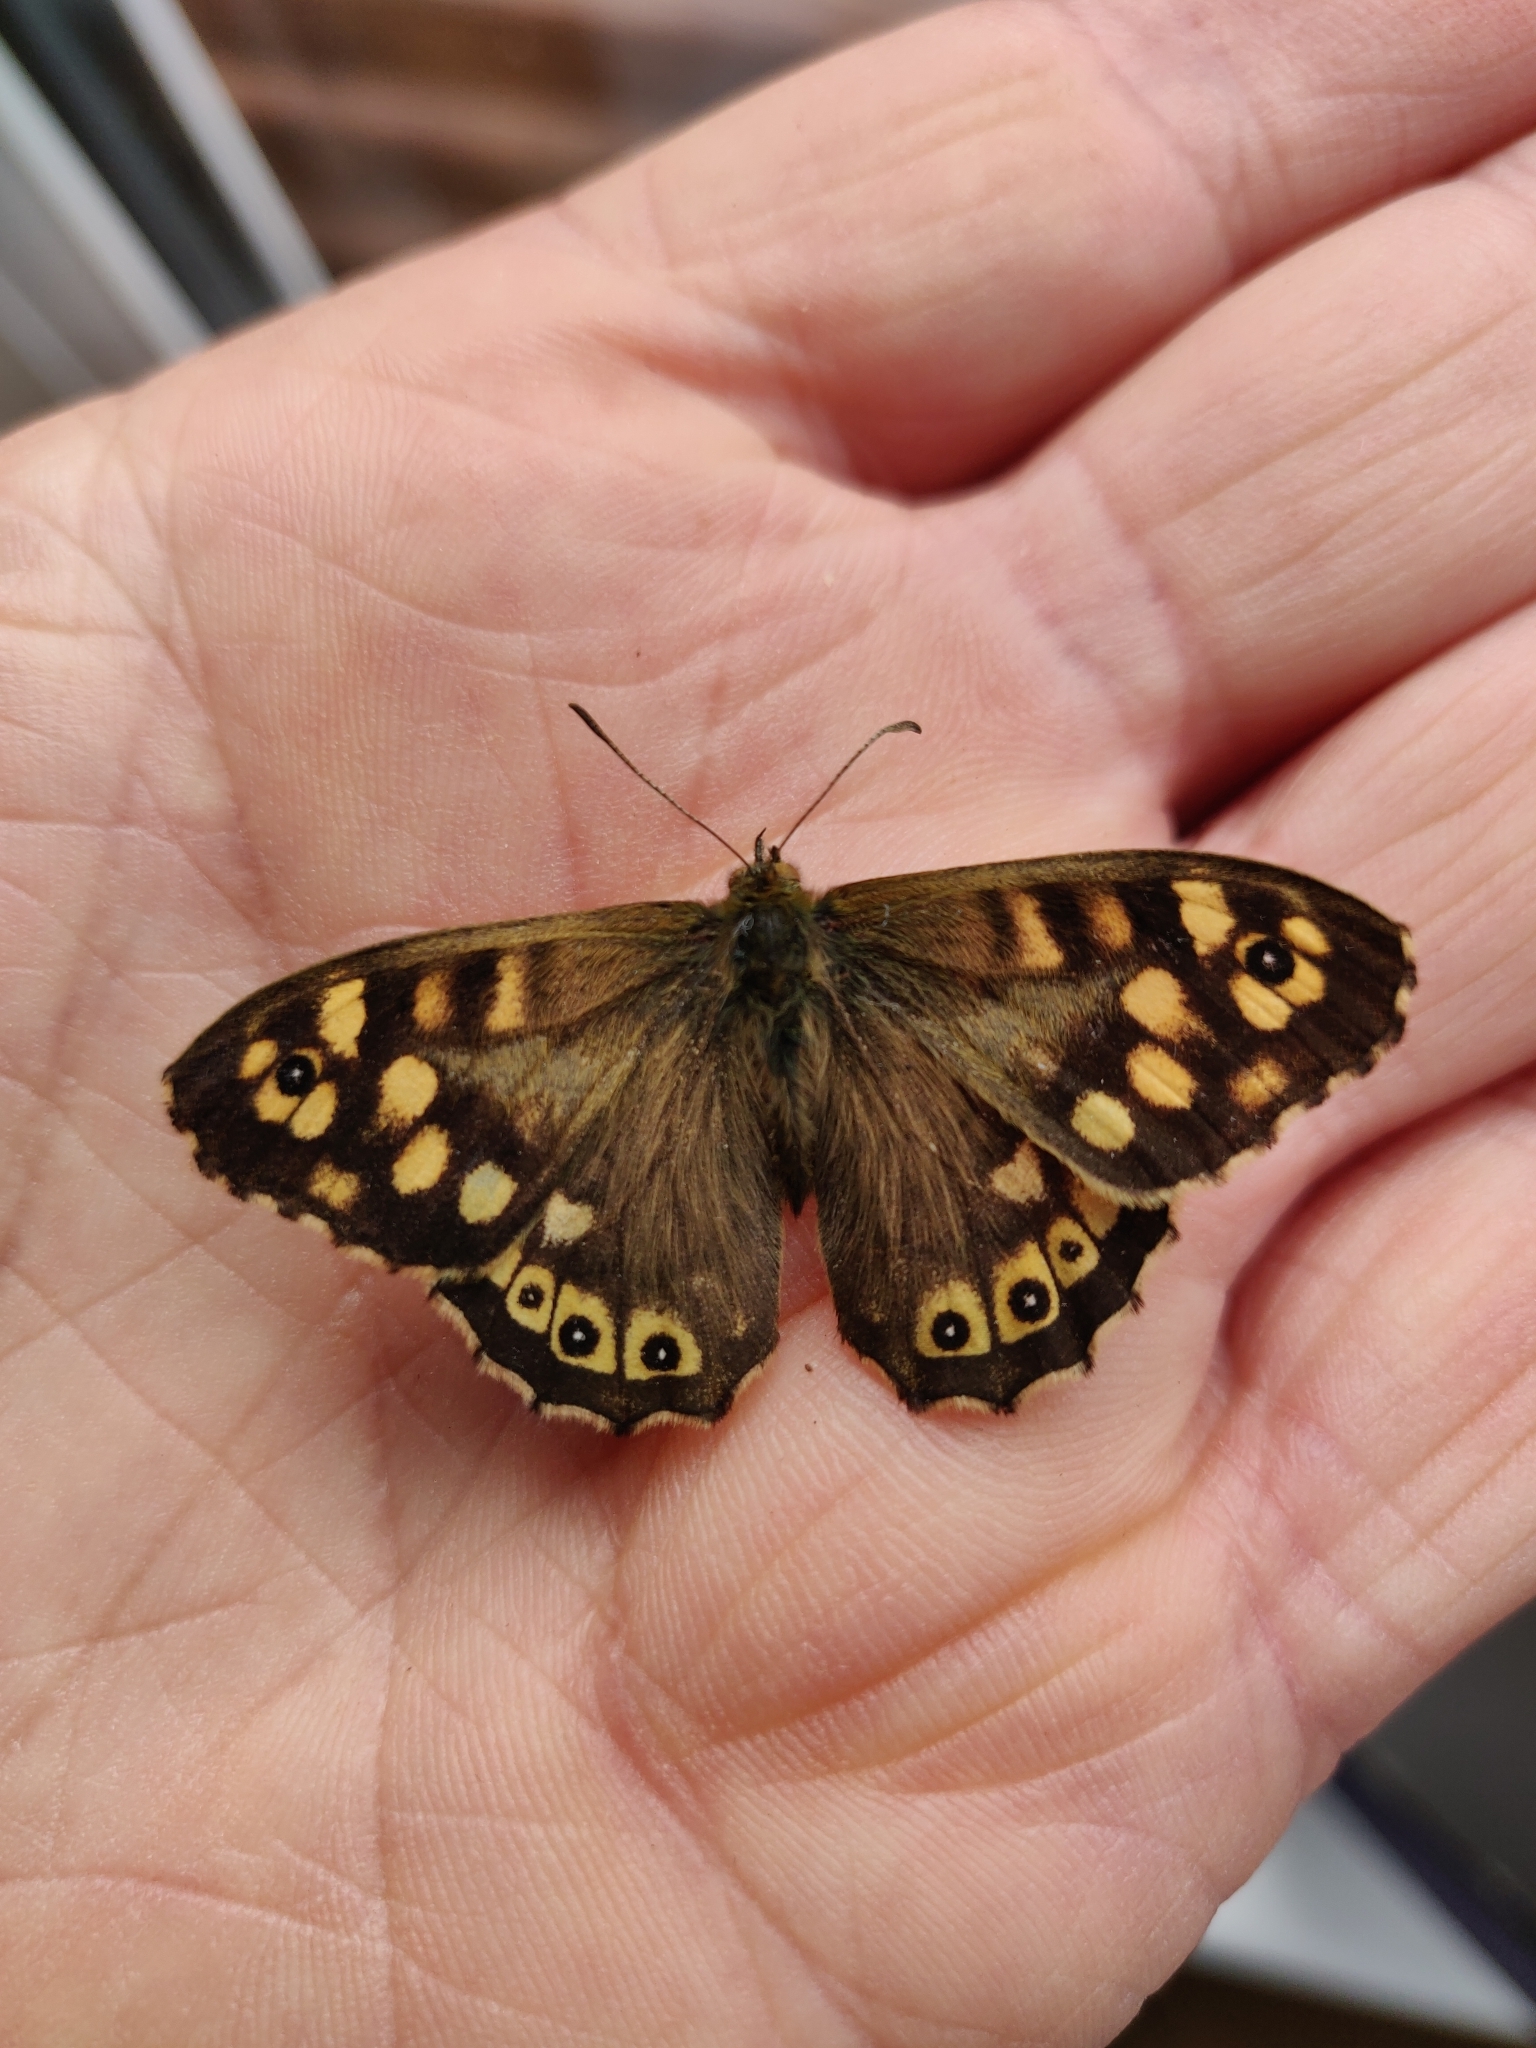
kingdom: Animalia
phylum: Arthropoda
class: Insecta
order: Lepidoptera
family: Nymphalidae
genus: Pararge
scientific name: Pararge aegeria
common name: Speckled wood
